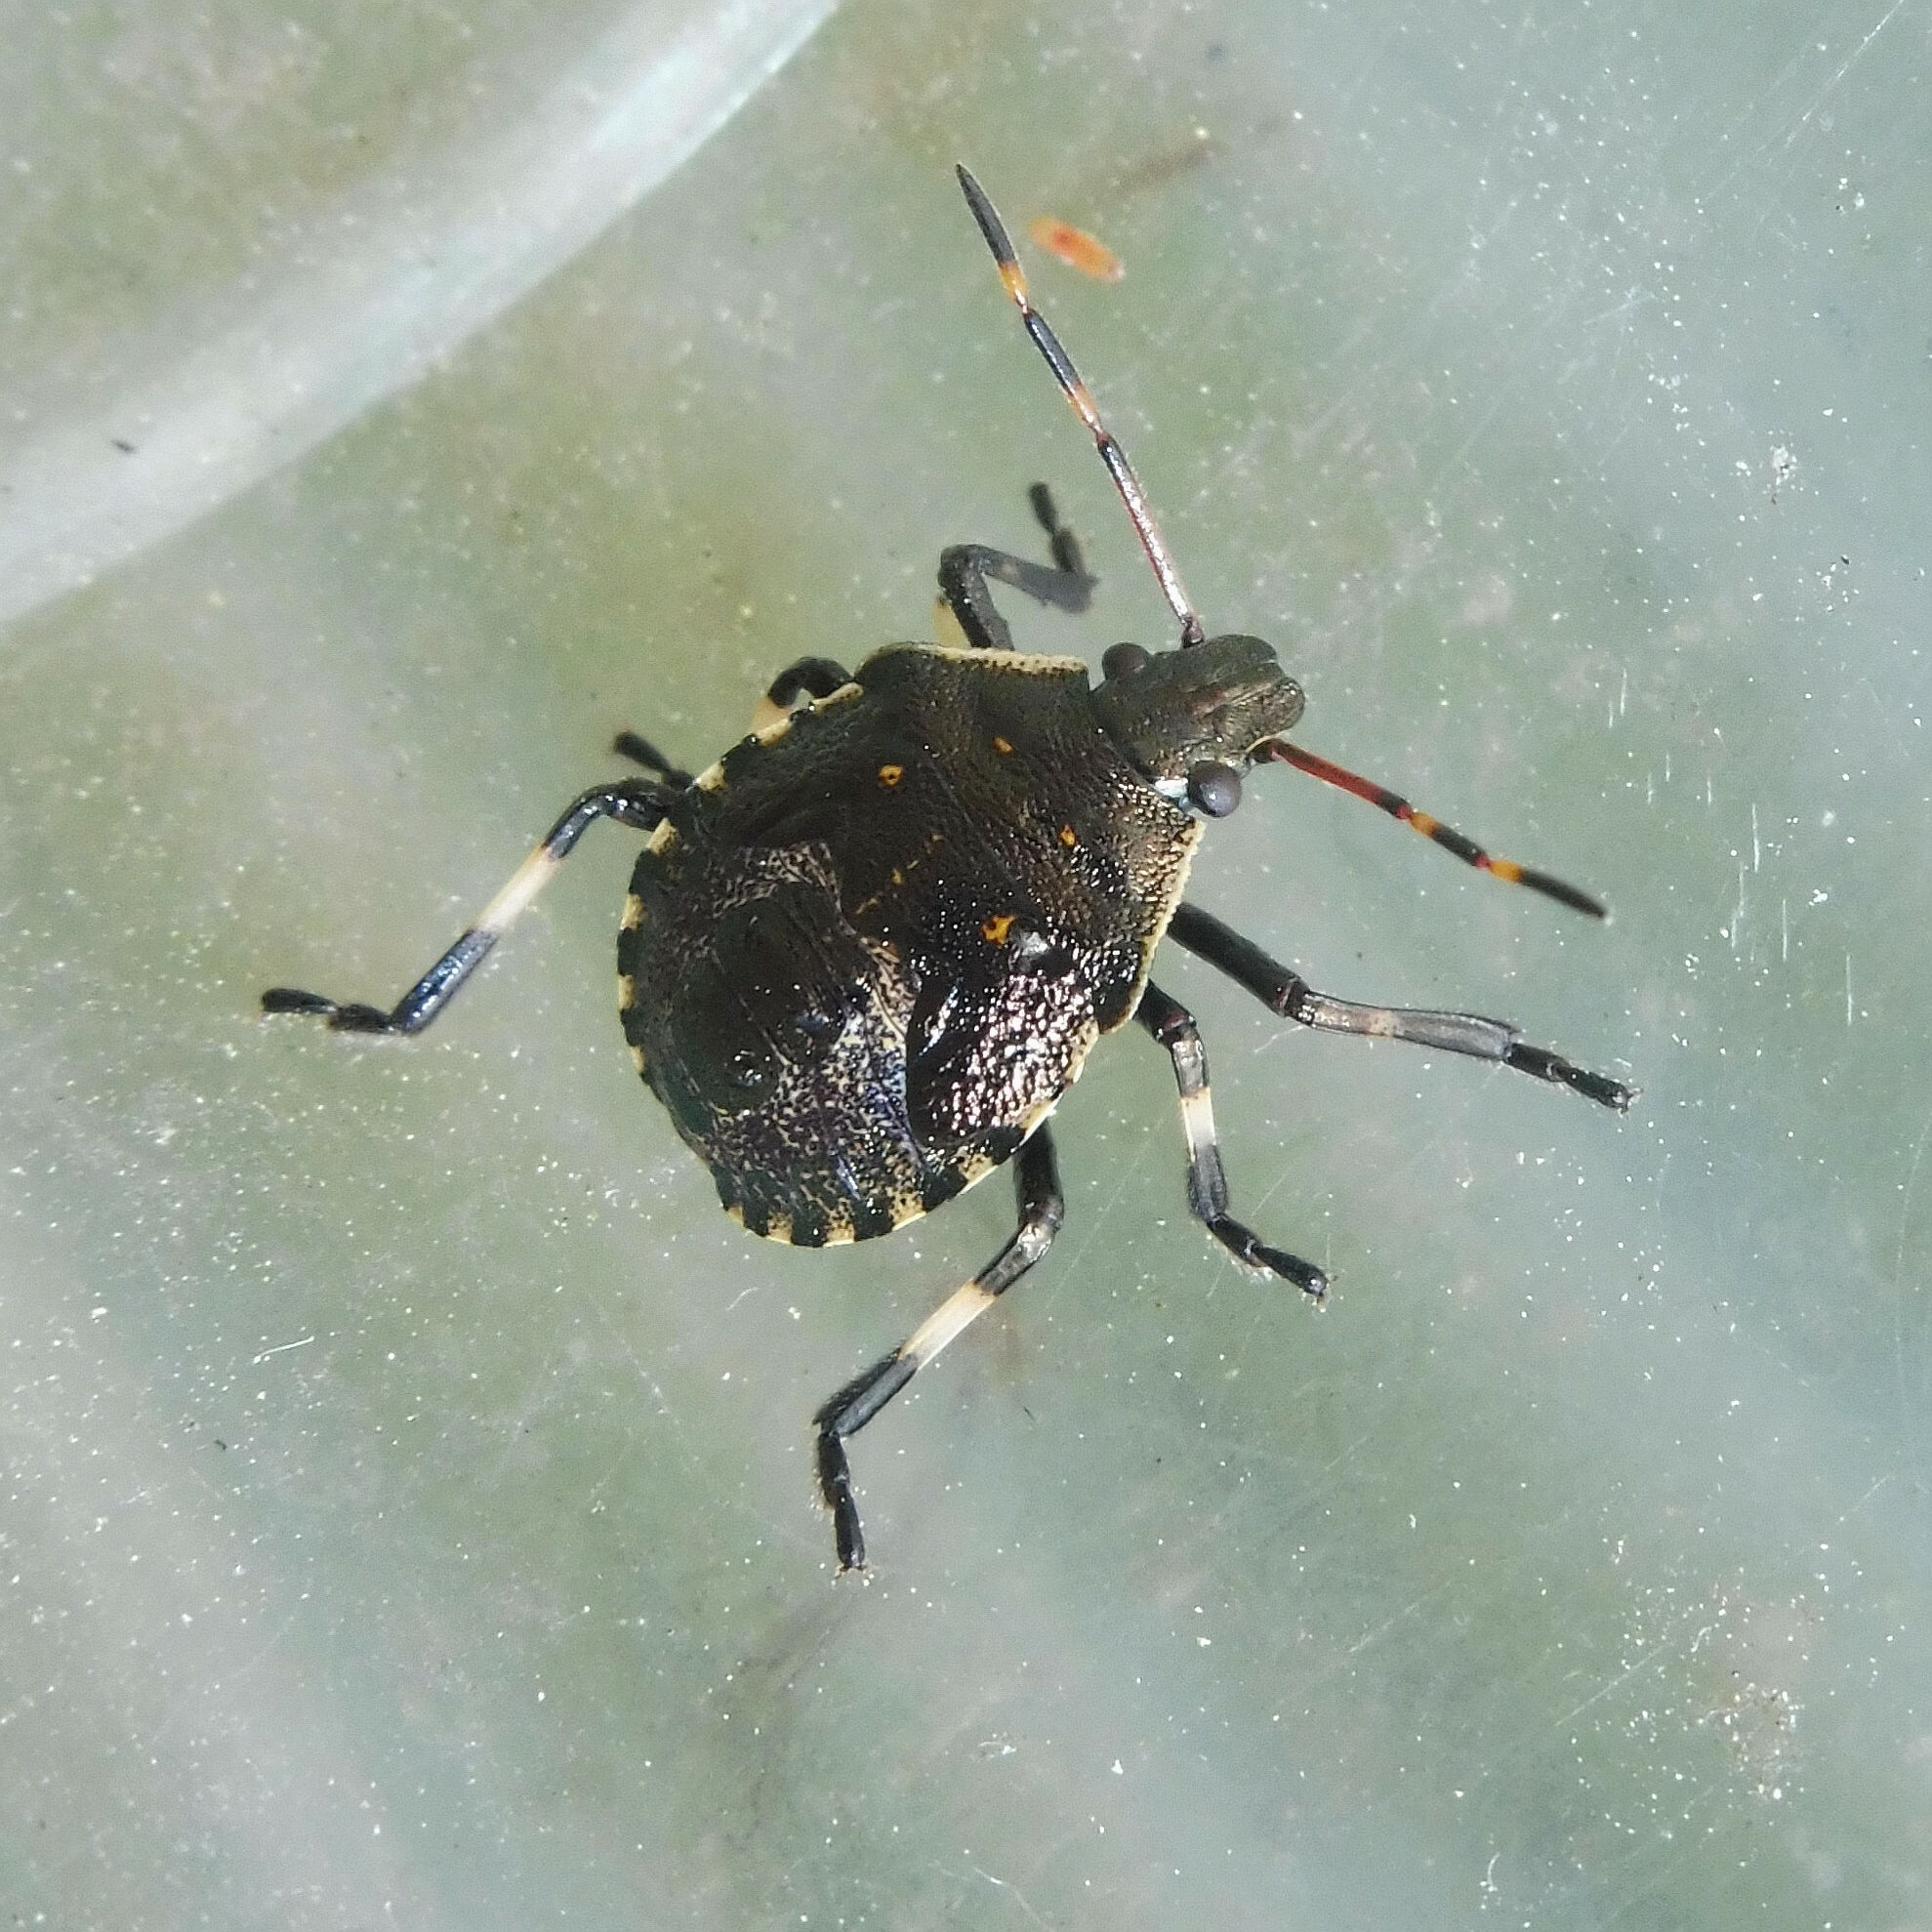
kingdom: Animalia
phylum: Arthropoda
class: Insecta
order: Hemiptera
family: Pentatomidae
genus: Picromerus
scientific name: Picromerus bidens
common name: Spiked shieldbug
